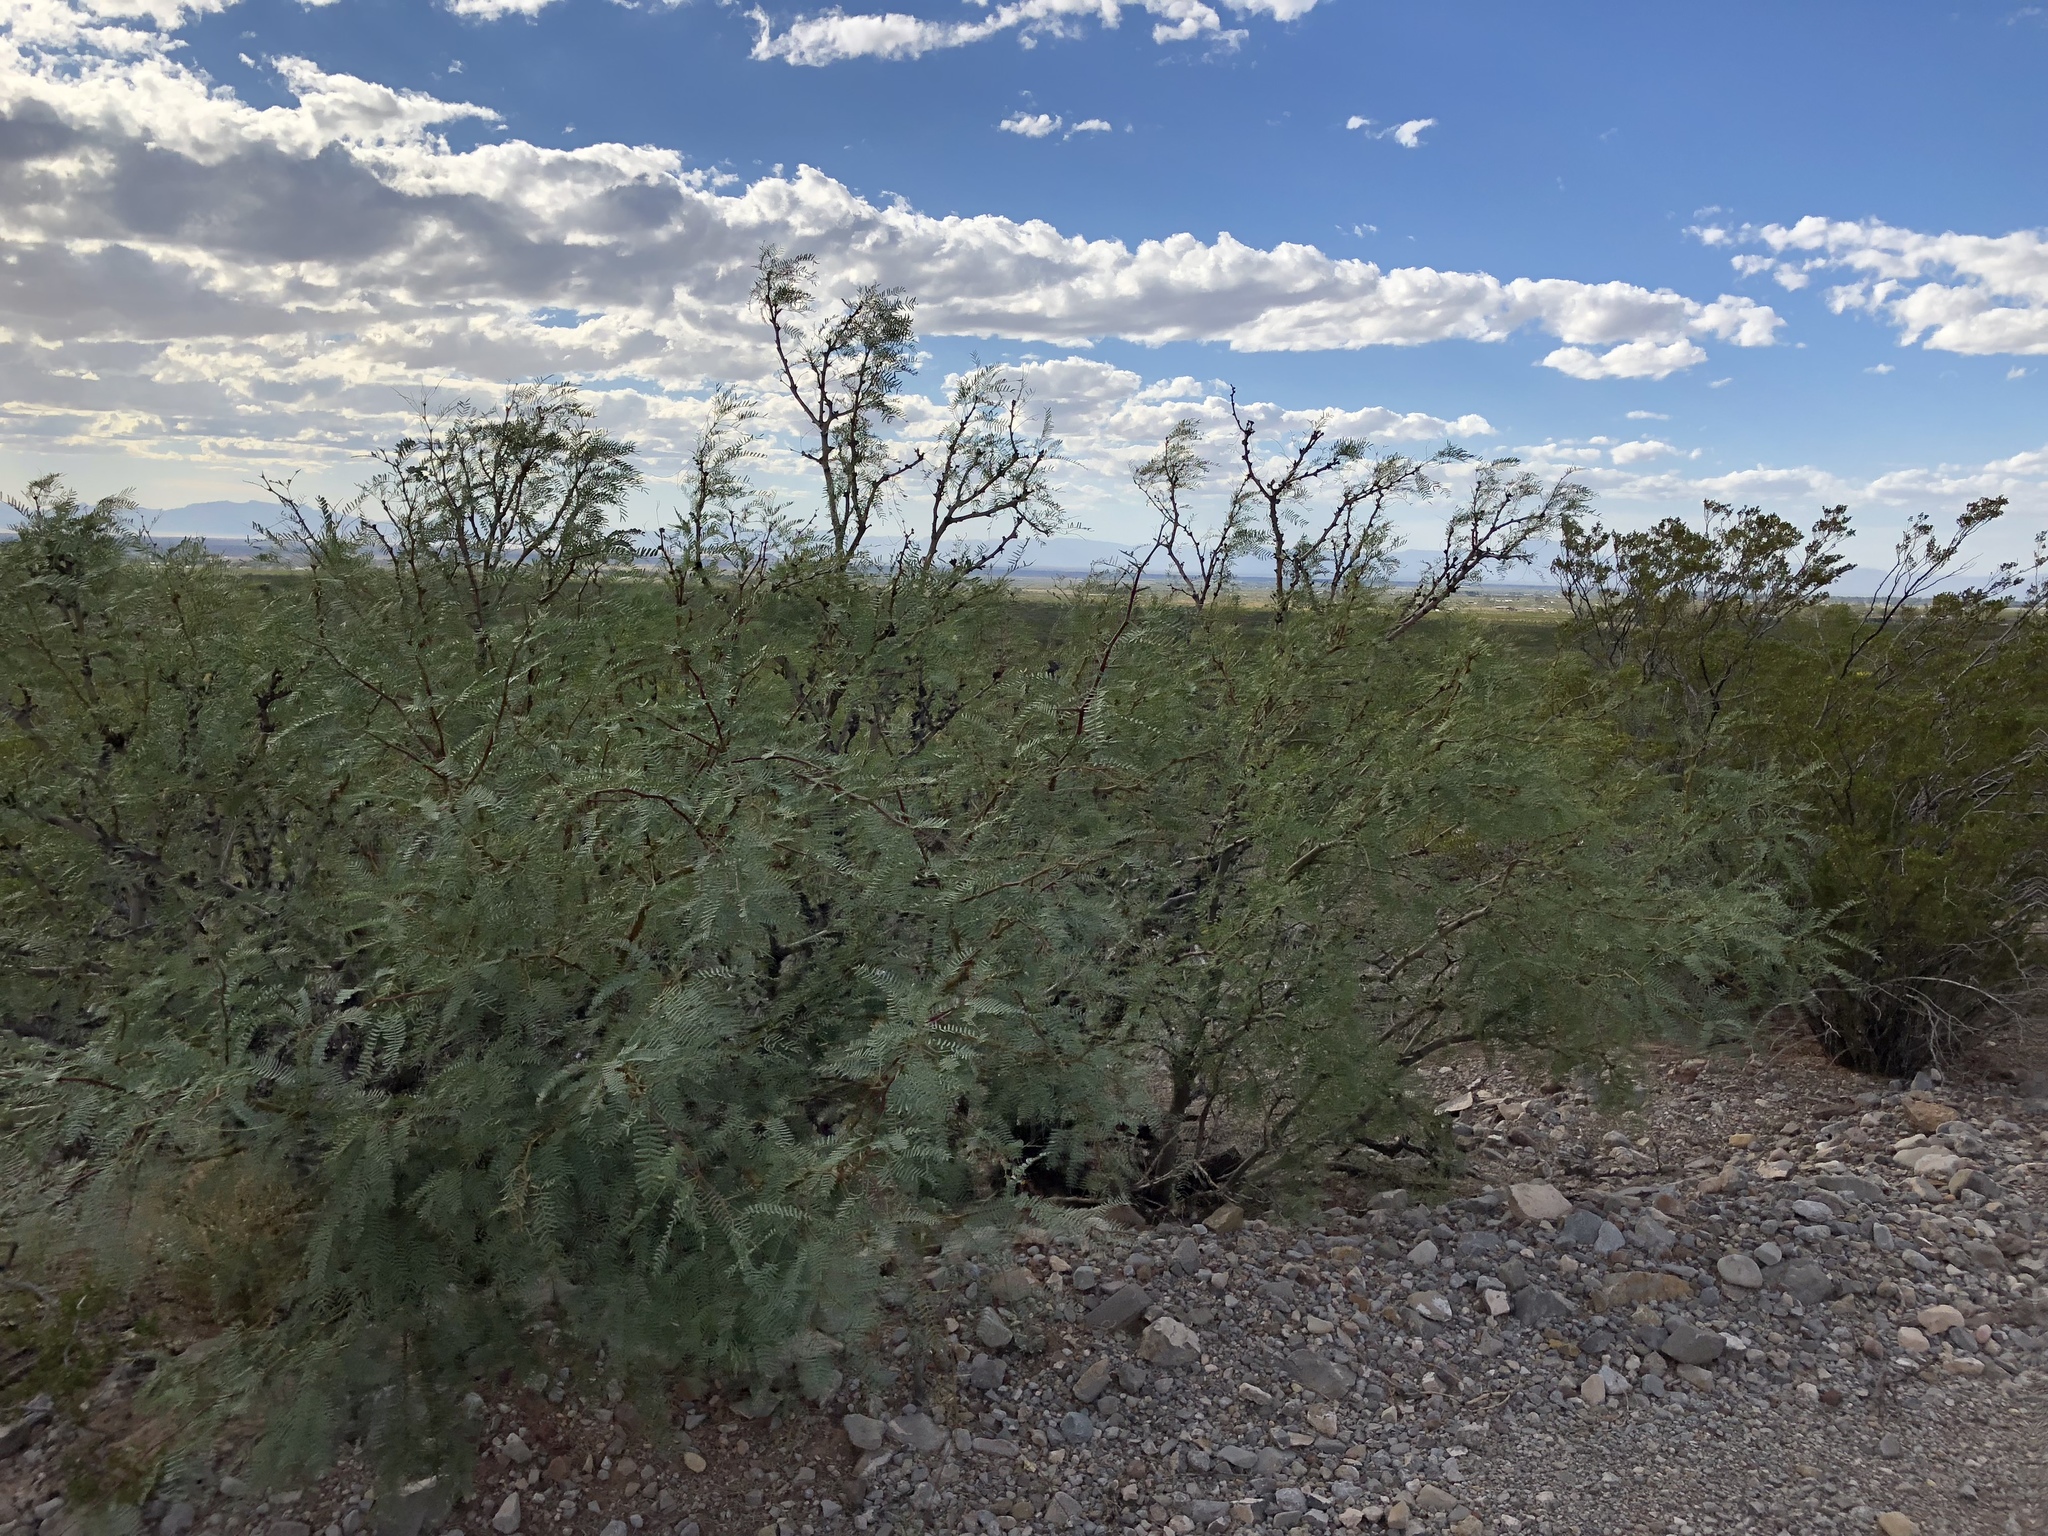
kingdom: Plantae
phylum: Tracheophyta
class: Magnoliopsida
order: Fabales
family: Fabaceae
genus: Prosopis
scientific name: Prosopis glandulosa
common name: Honey mesquite
